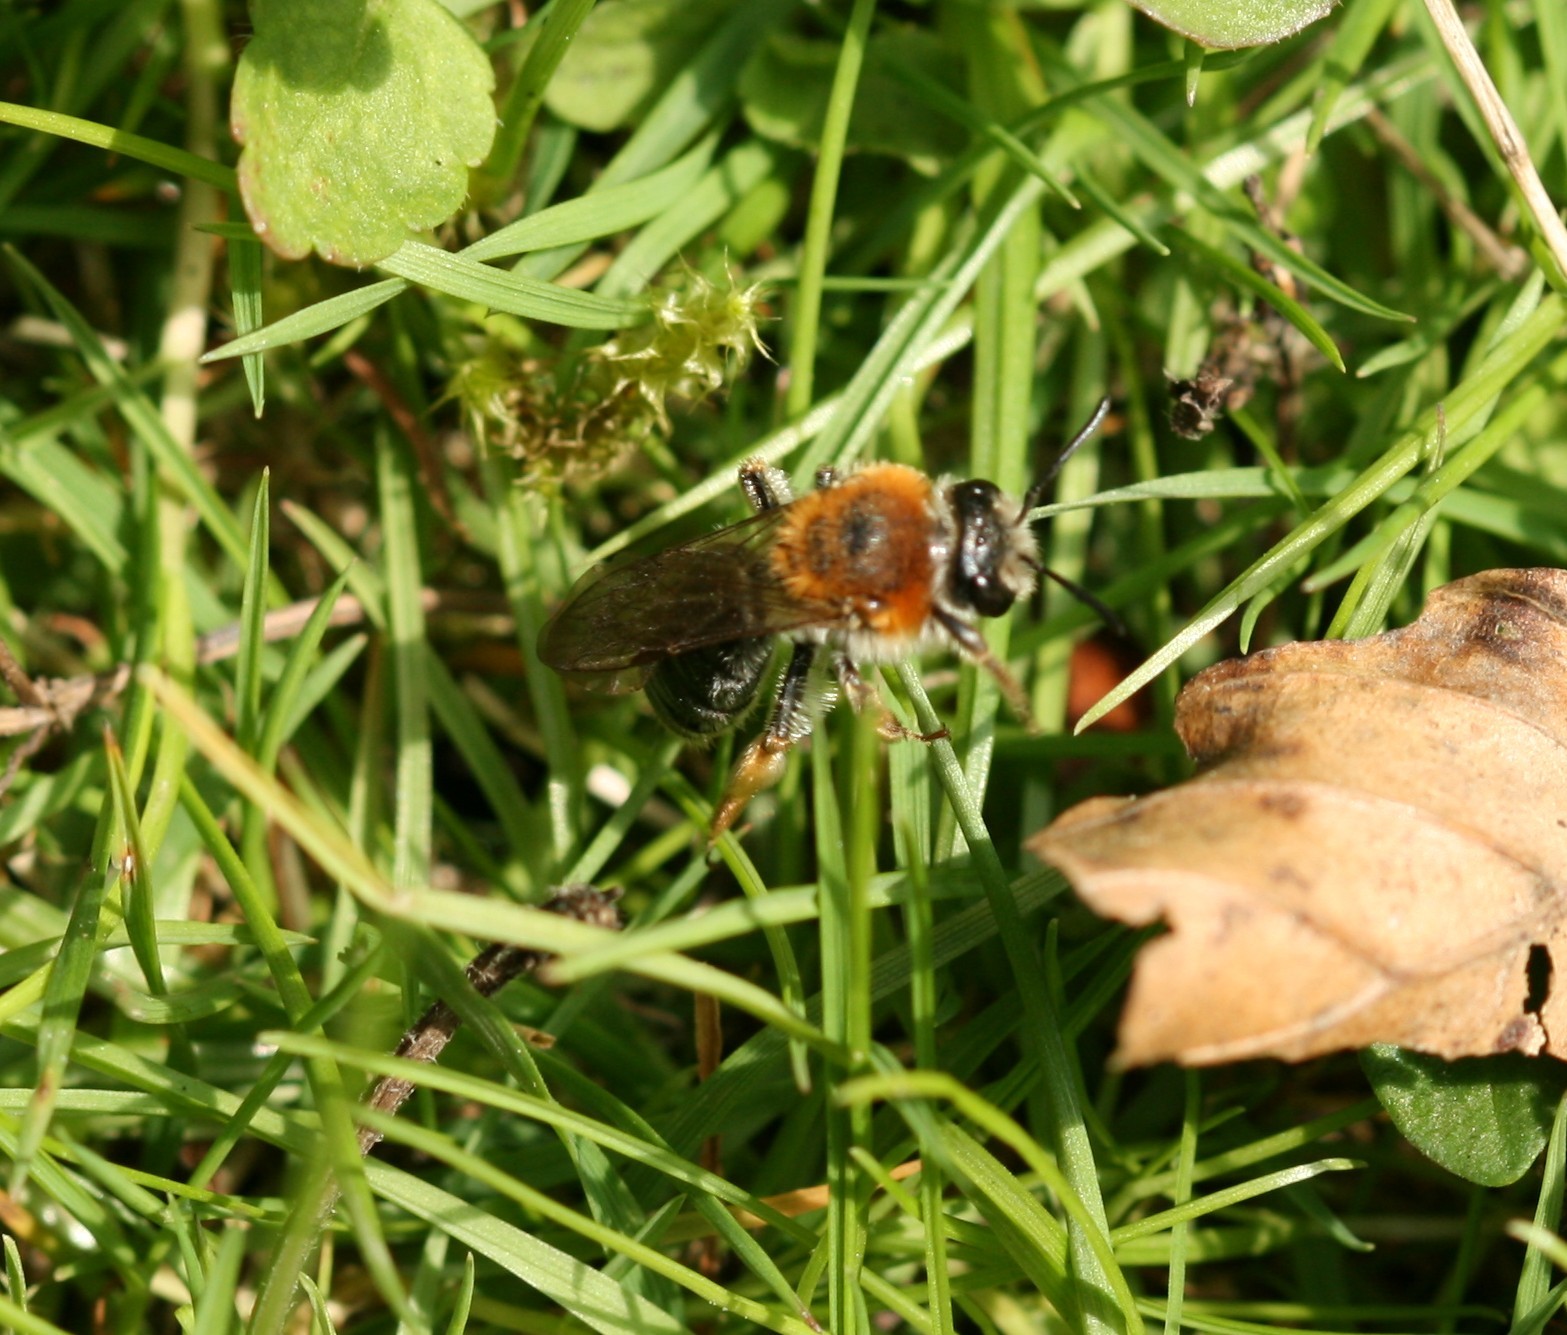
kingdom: Animalia
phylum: Arthropoda
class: Insecta
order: Hymenoptera
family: Andrenidae
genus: Andrena
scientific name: Andrena haemorrhoa
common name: Early mining bee
